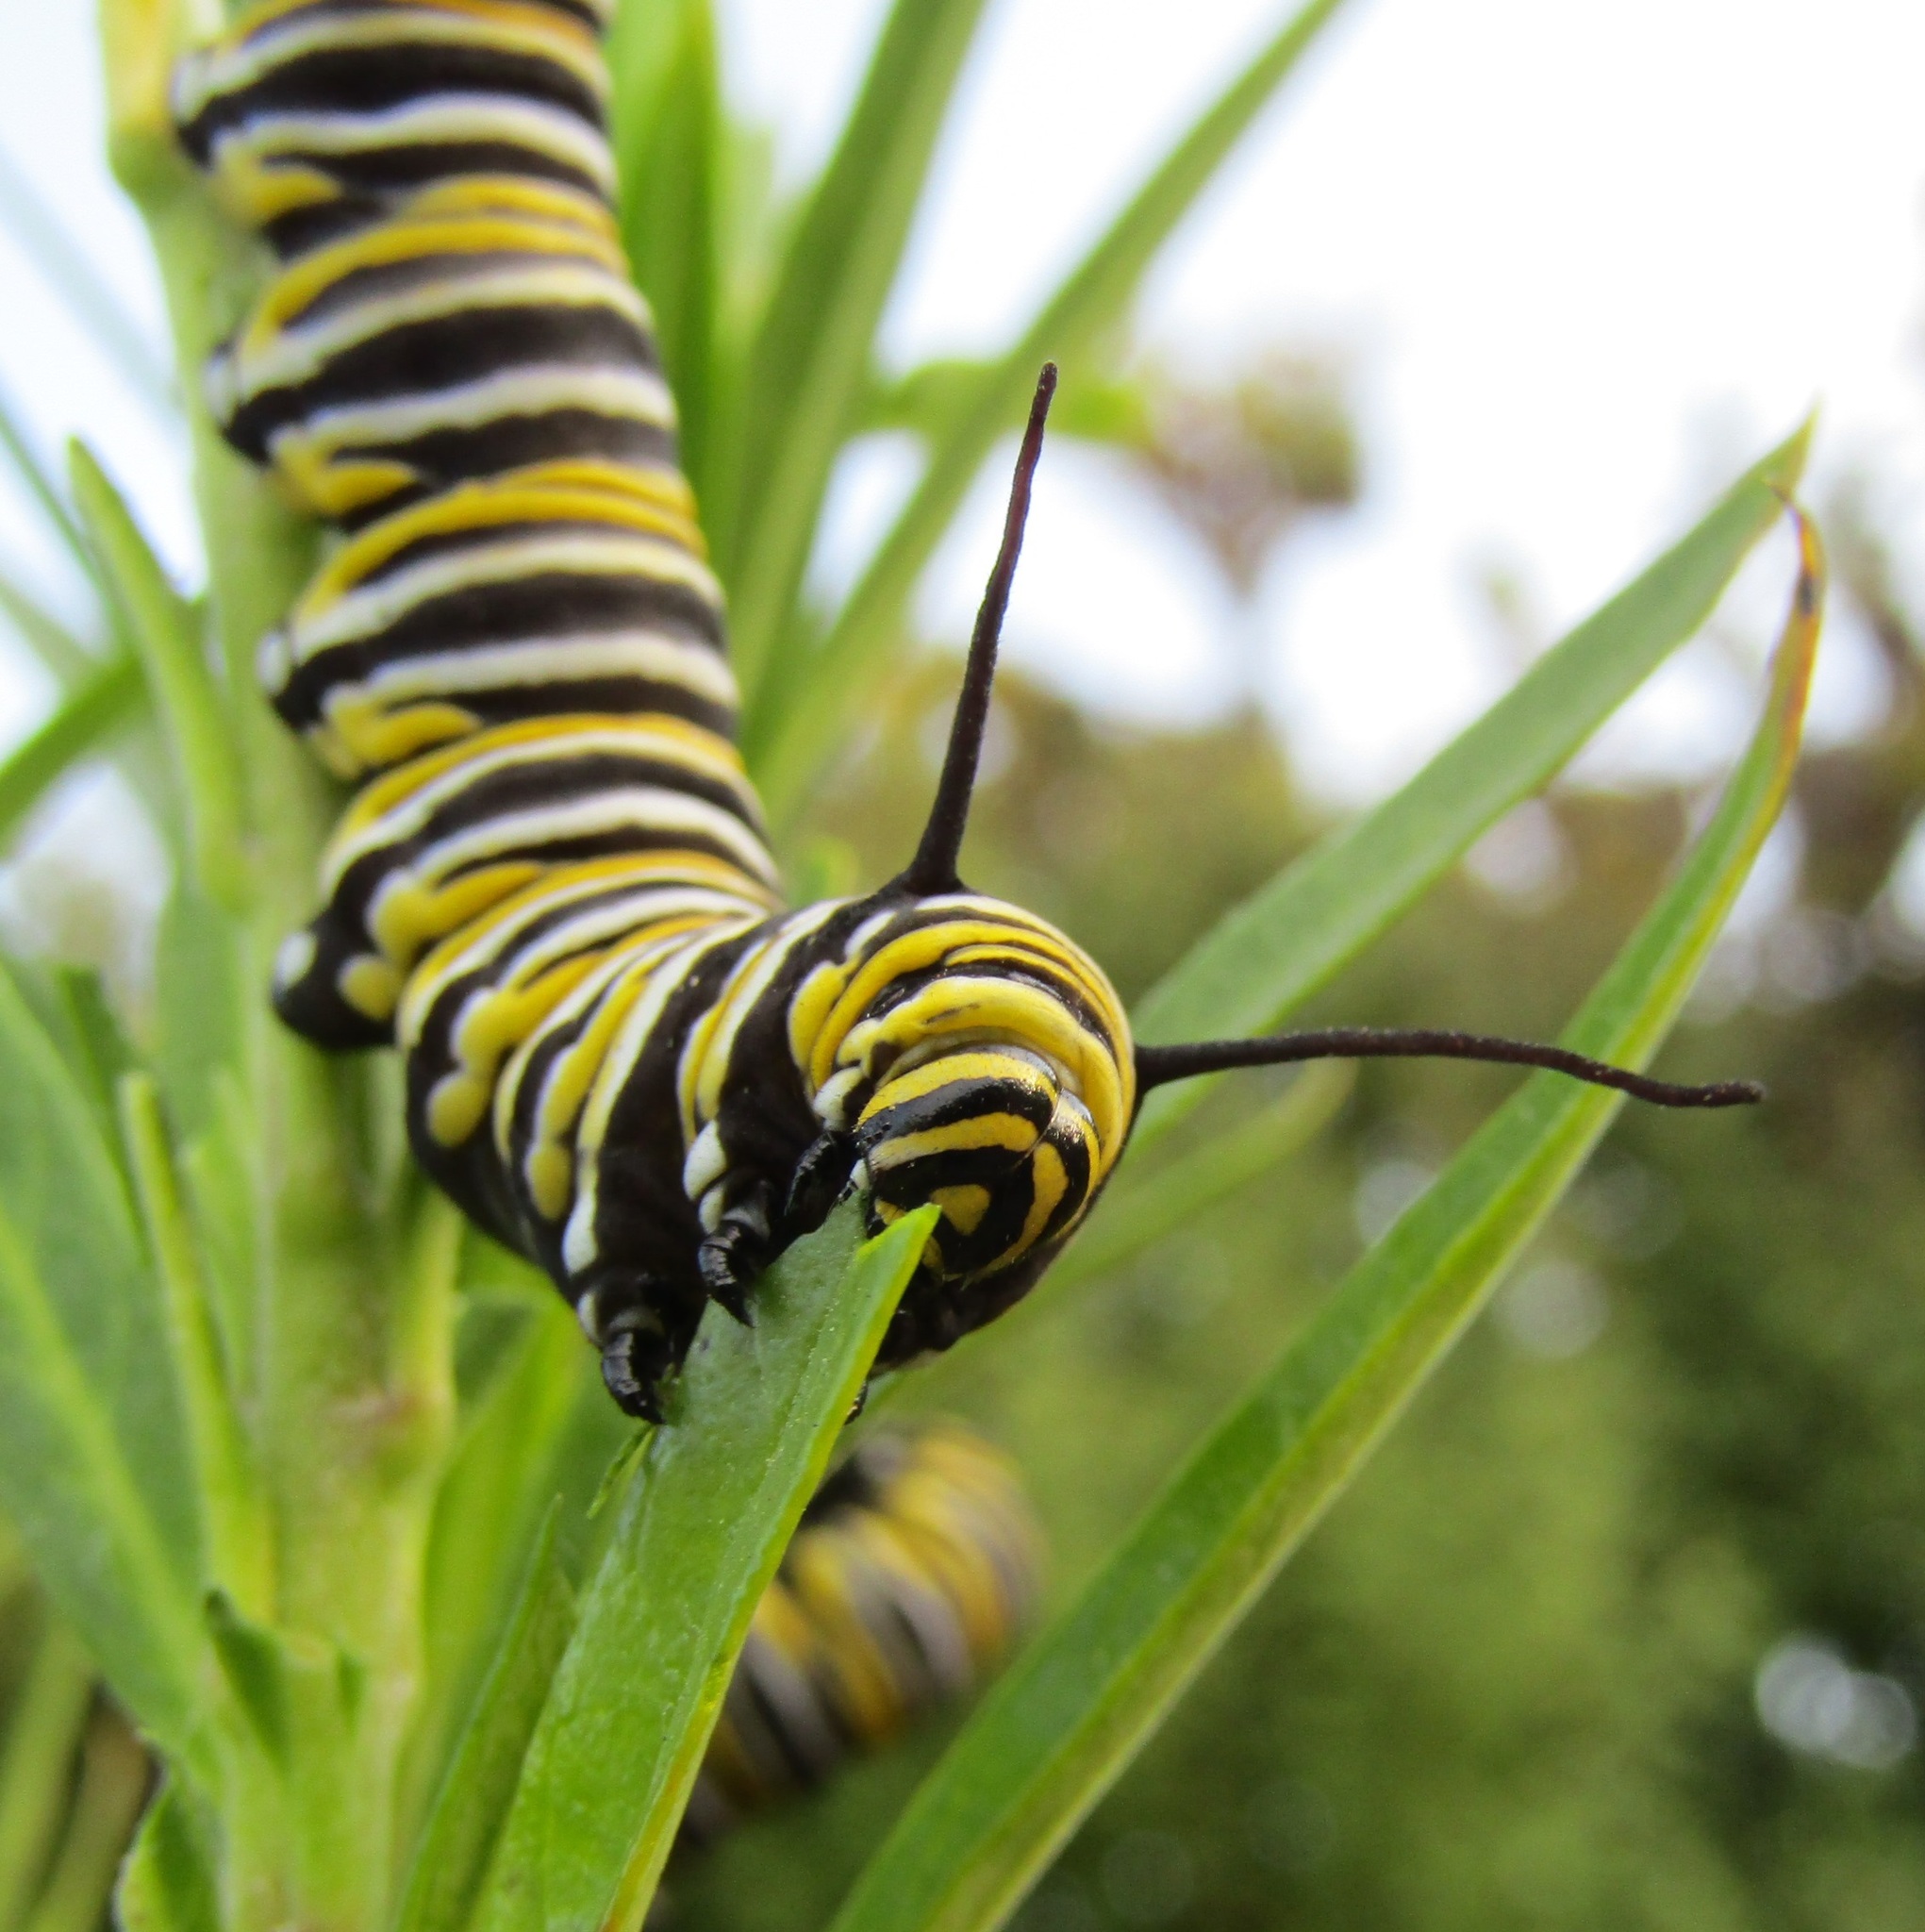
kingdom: Animalia
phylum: Arthropoda
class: Insecta
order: Lepidoptera
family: Nymphalidae
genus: Danaus
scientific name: Danaus plexippus
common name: Monarch
